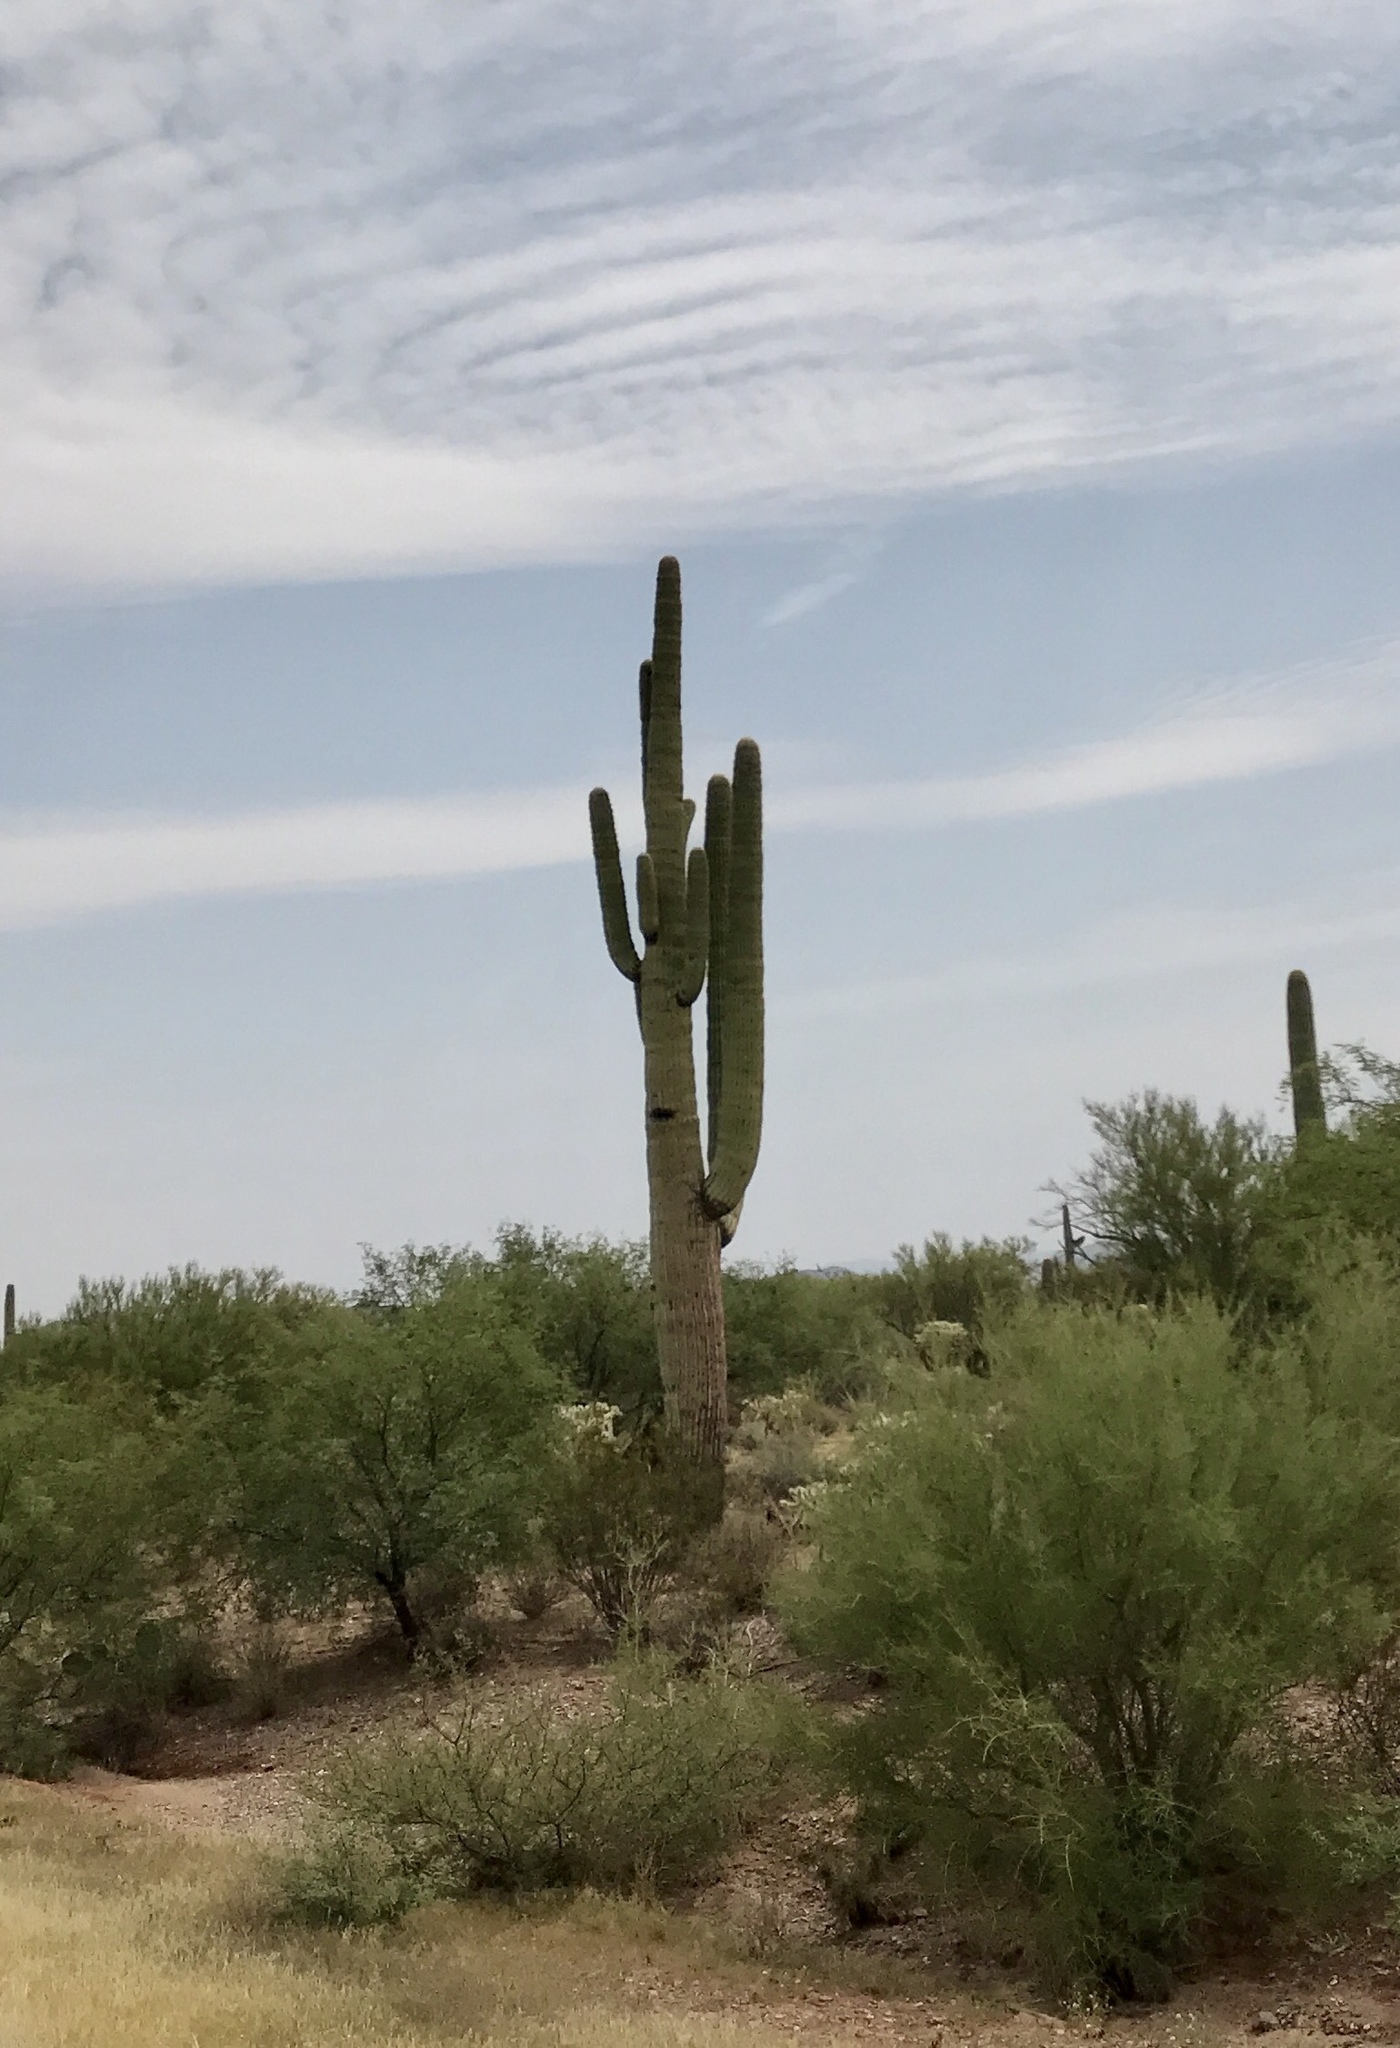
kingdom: Plantae
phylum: Tracheophyta
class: Magnoliopsida
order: Caryophyllales
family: Cactaceae
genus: Carnegiea
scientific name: Carnegiea gigantea
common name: Saguaro
